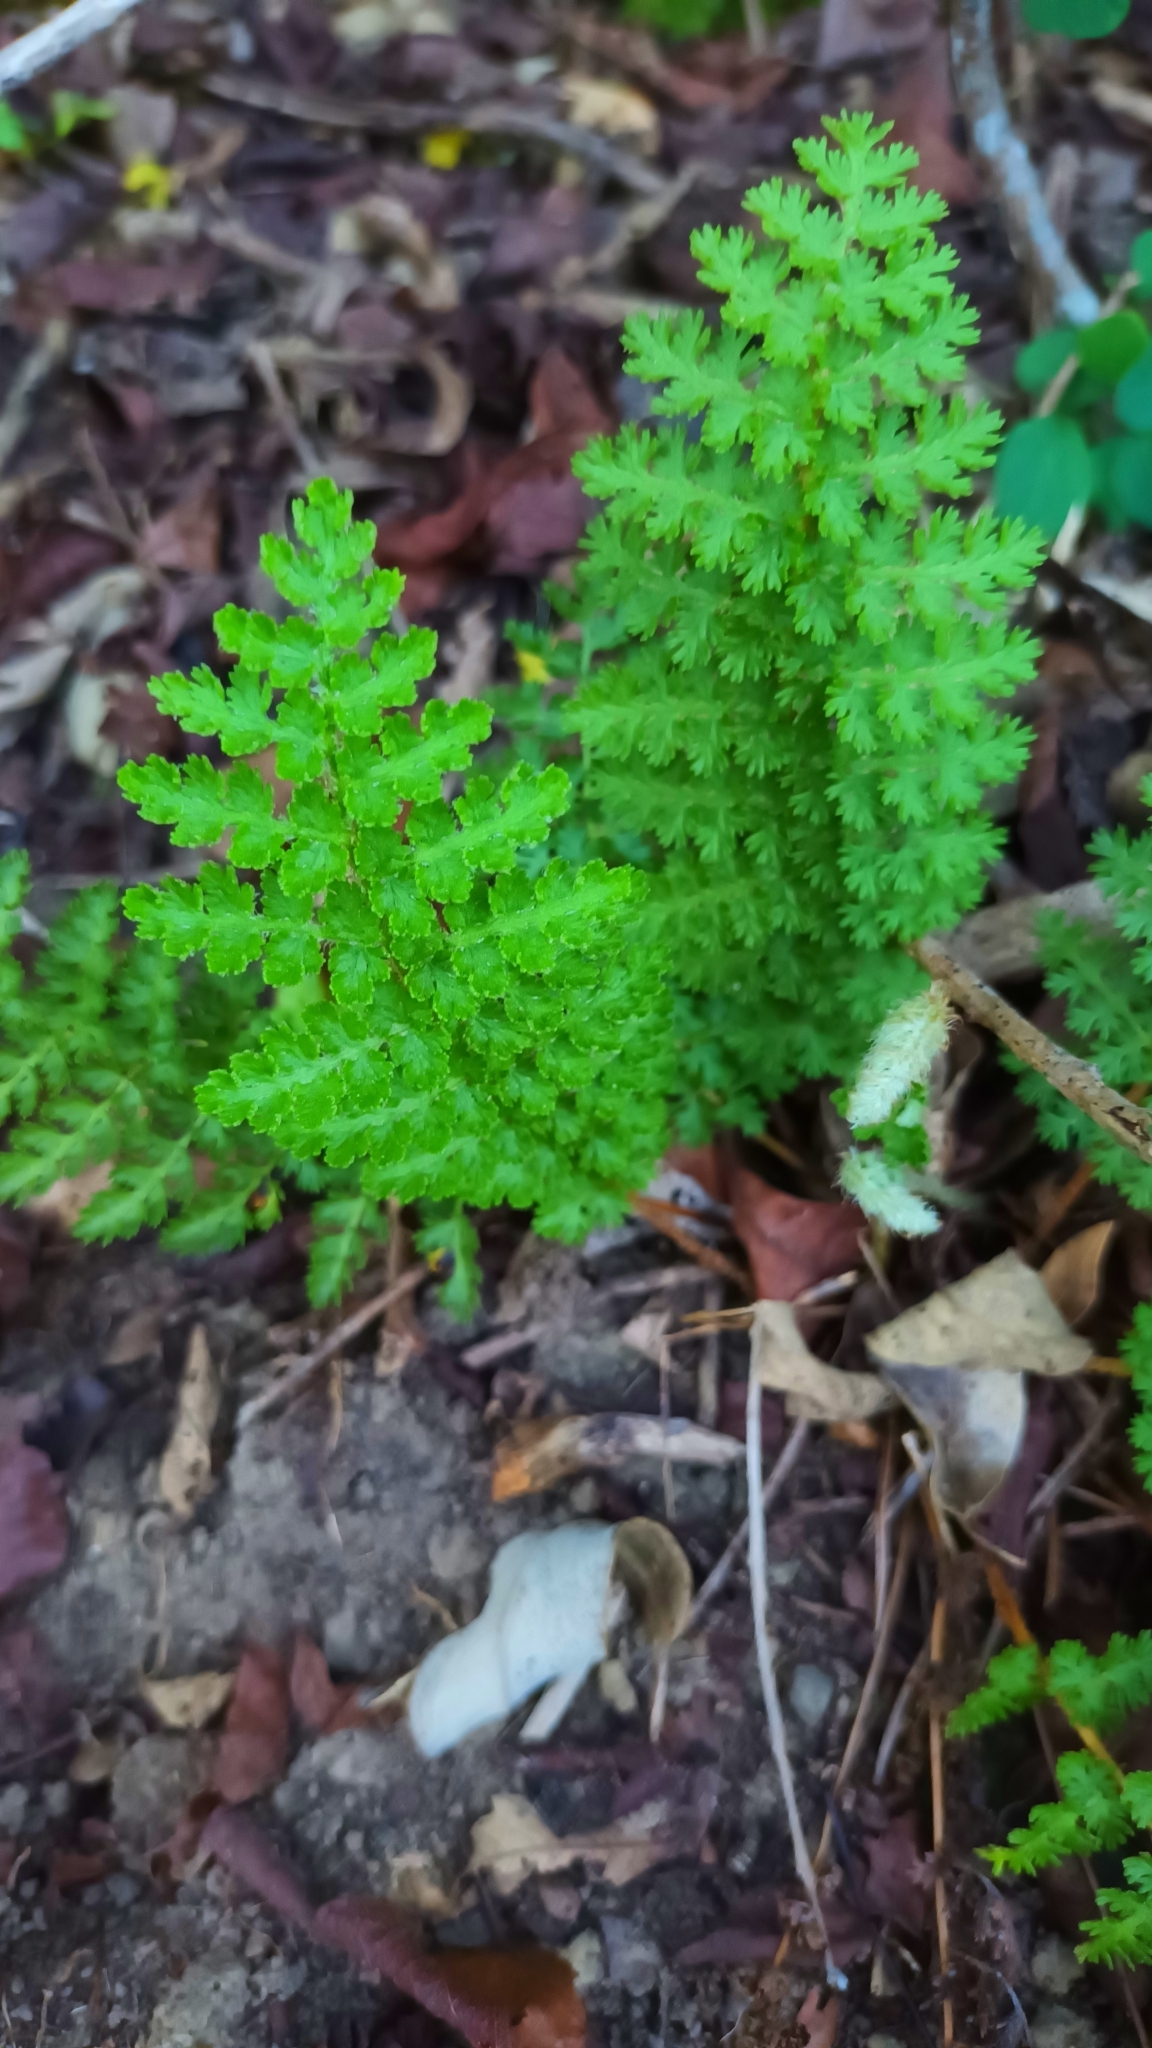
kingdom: Plantae
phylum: Tracheophyta
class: Polypodiopsida
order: Schizaeales
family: Anemiaceae
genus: Anemia
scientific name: Anemia caffrorum
